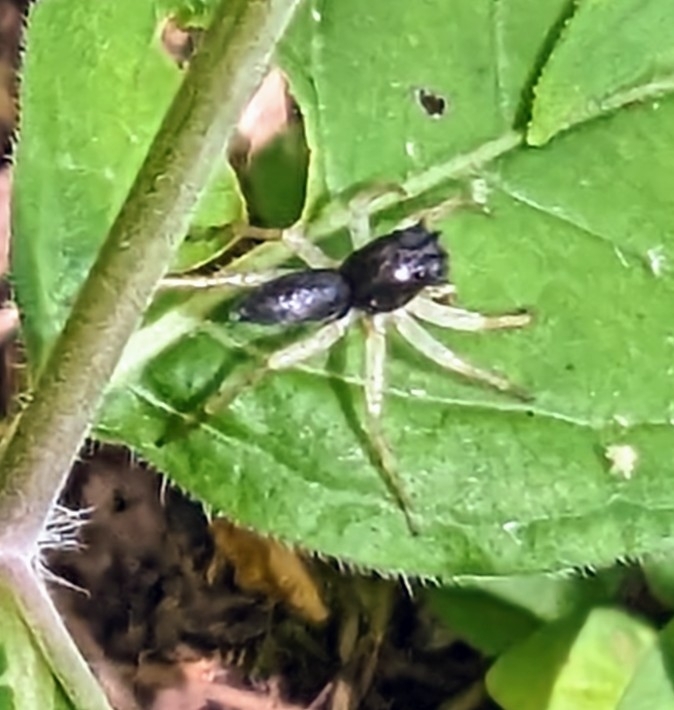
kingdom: Animalia
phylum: Arthropoda
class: Arachnida
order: Araneae
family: Salticidae
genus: Maevia
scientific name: Maevia inclemens
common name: Dimorphic jumper
